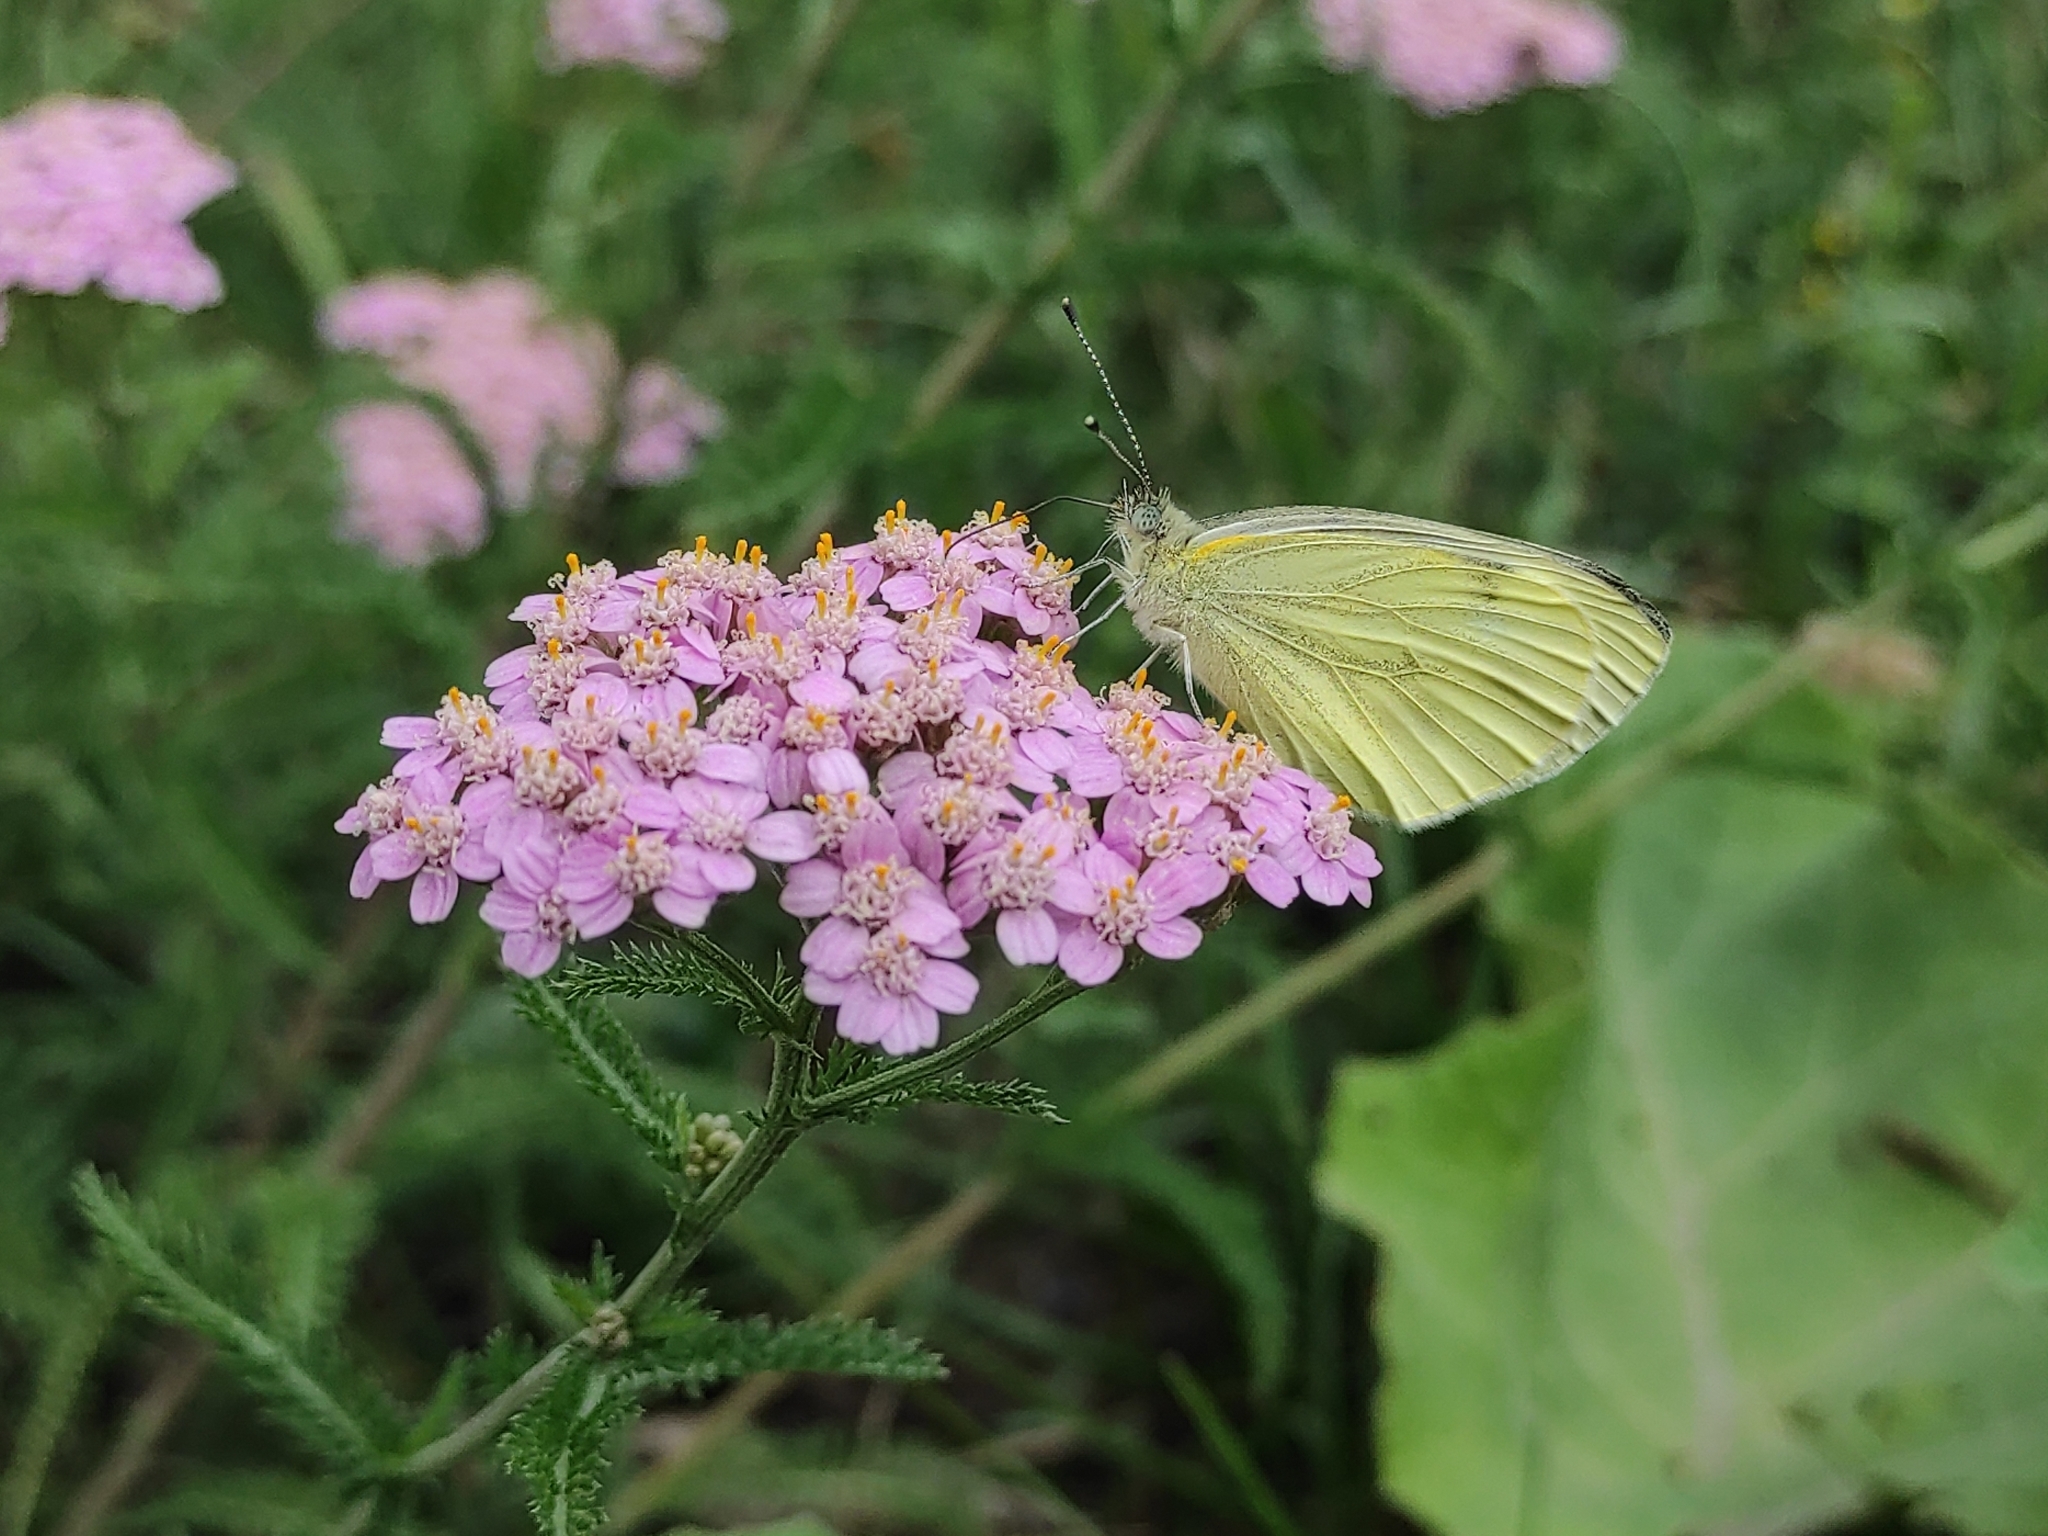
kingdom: Animalia
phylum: Arthropoda
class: Insecta
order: Lepidoptera
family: Pieridae
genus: Pieris
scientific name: Pieris napi
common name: Green-veined white
